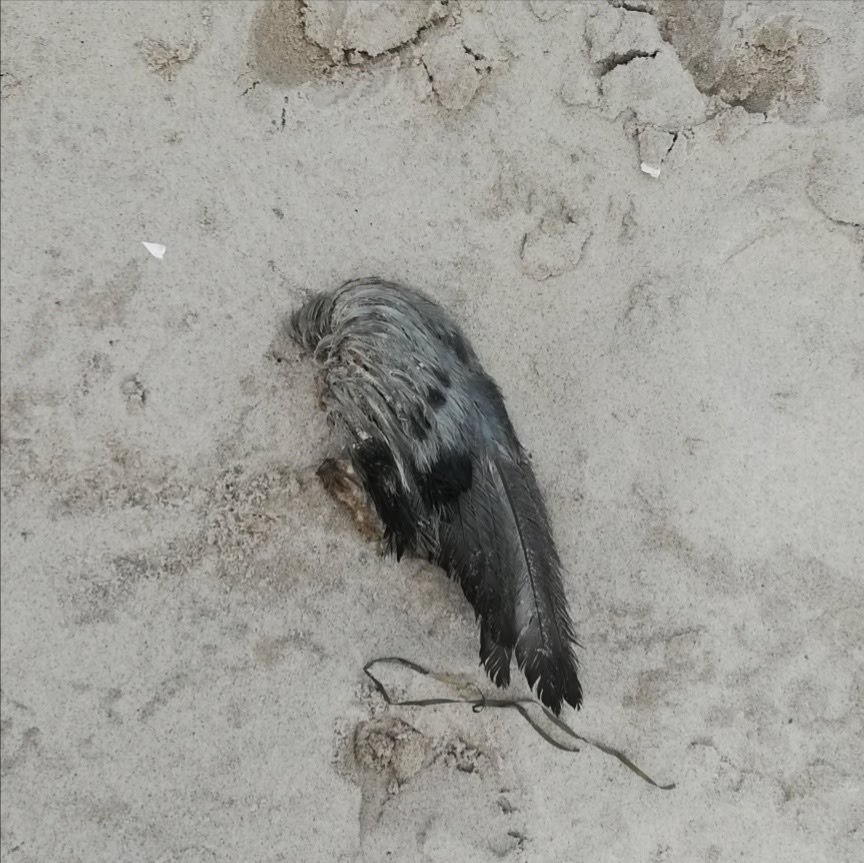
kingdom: Animalia
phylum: Chordata
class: Aves
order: Columbiformes
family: Columbidae
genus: Columba
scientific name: Columba livia
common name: Rock pigeon
